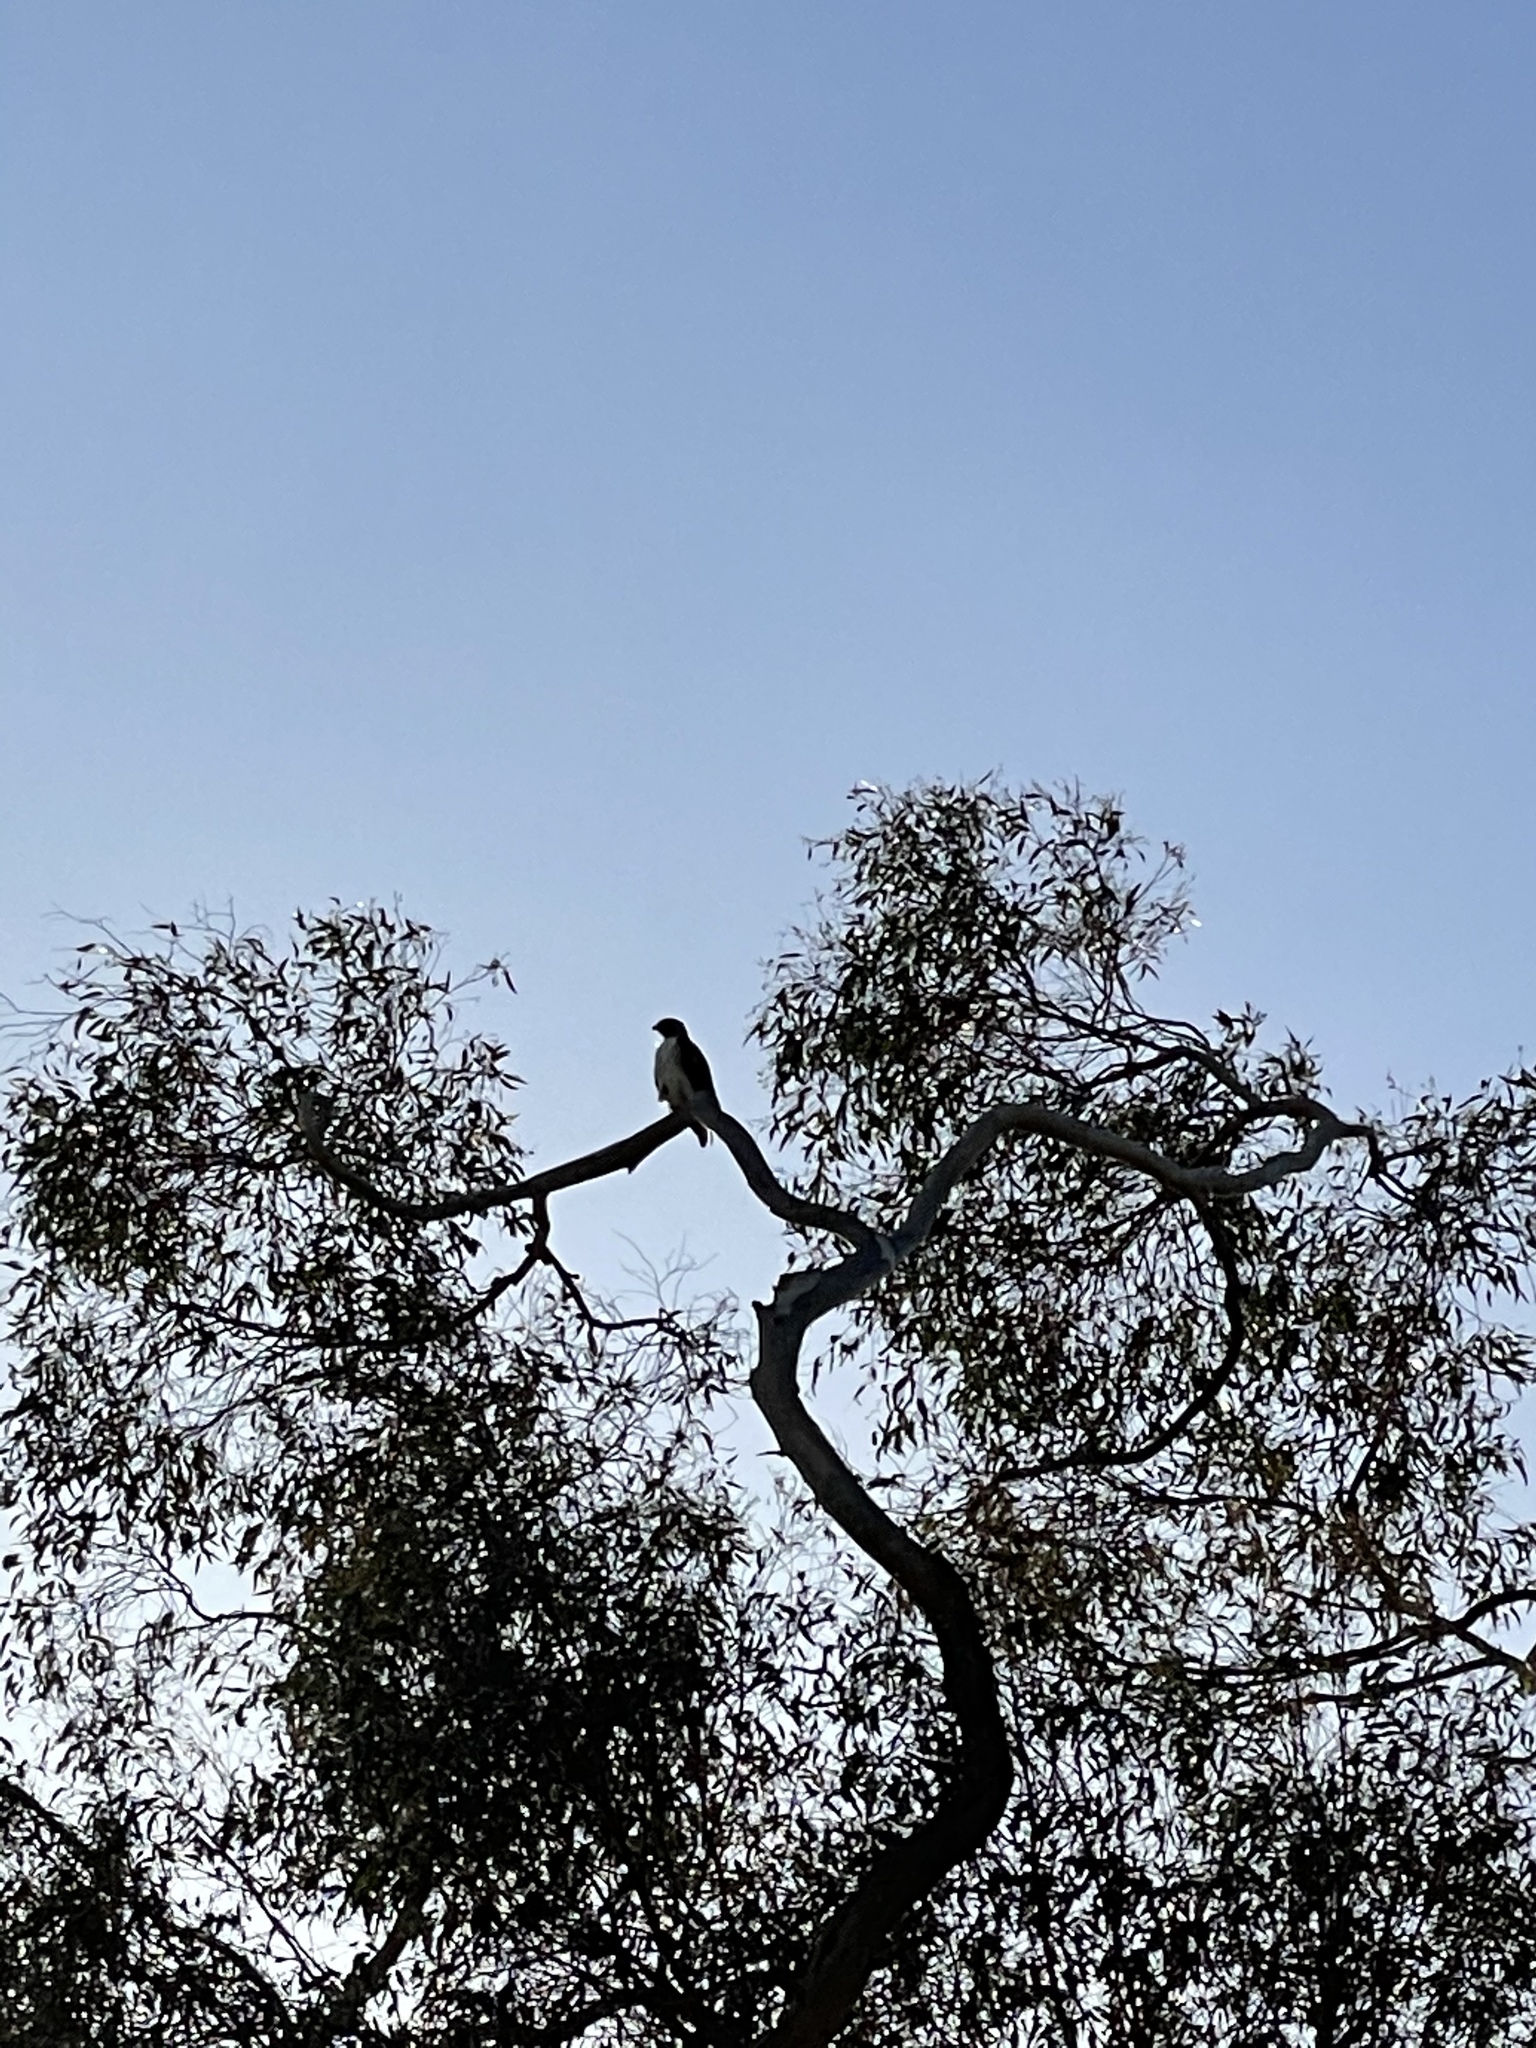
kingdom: Animalia
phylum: Chordata
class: Aves
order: Accipitriformes
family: Accipitridae
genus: Buteo
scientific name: Buteo jamaicensis
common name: Red-tailed hawk
